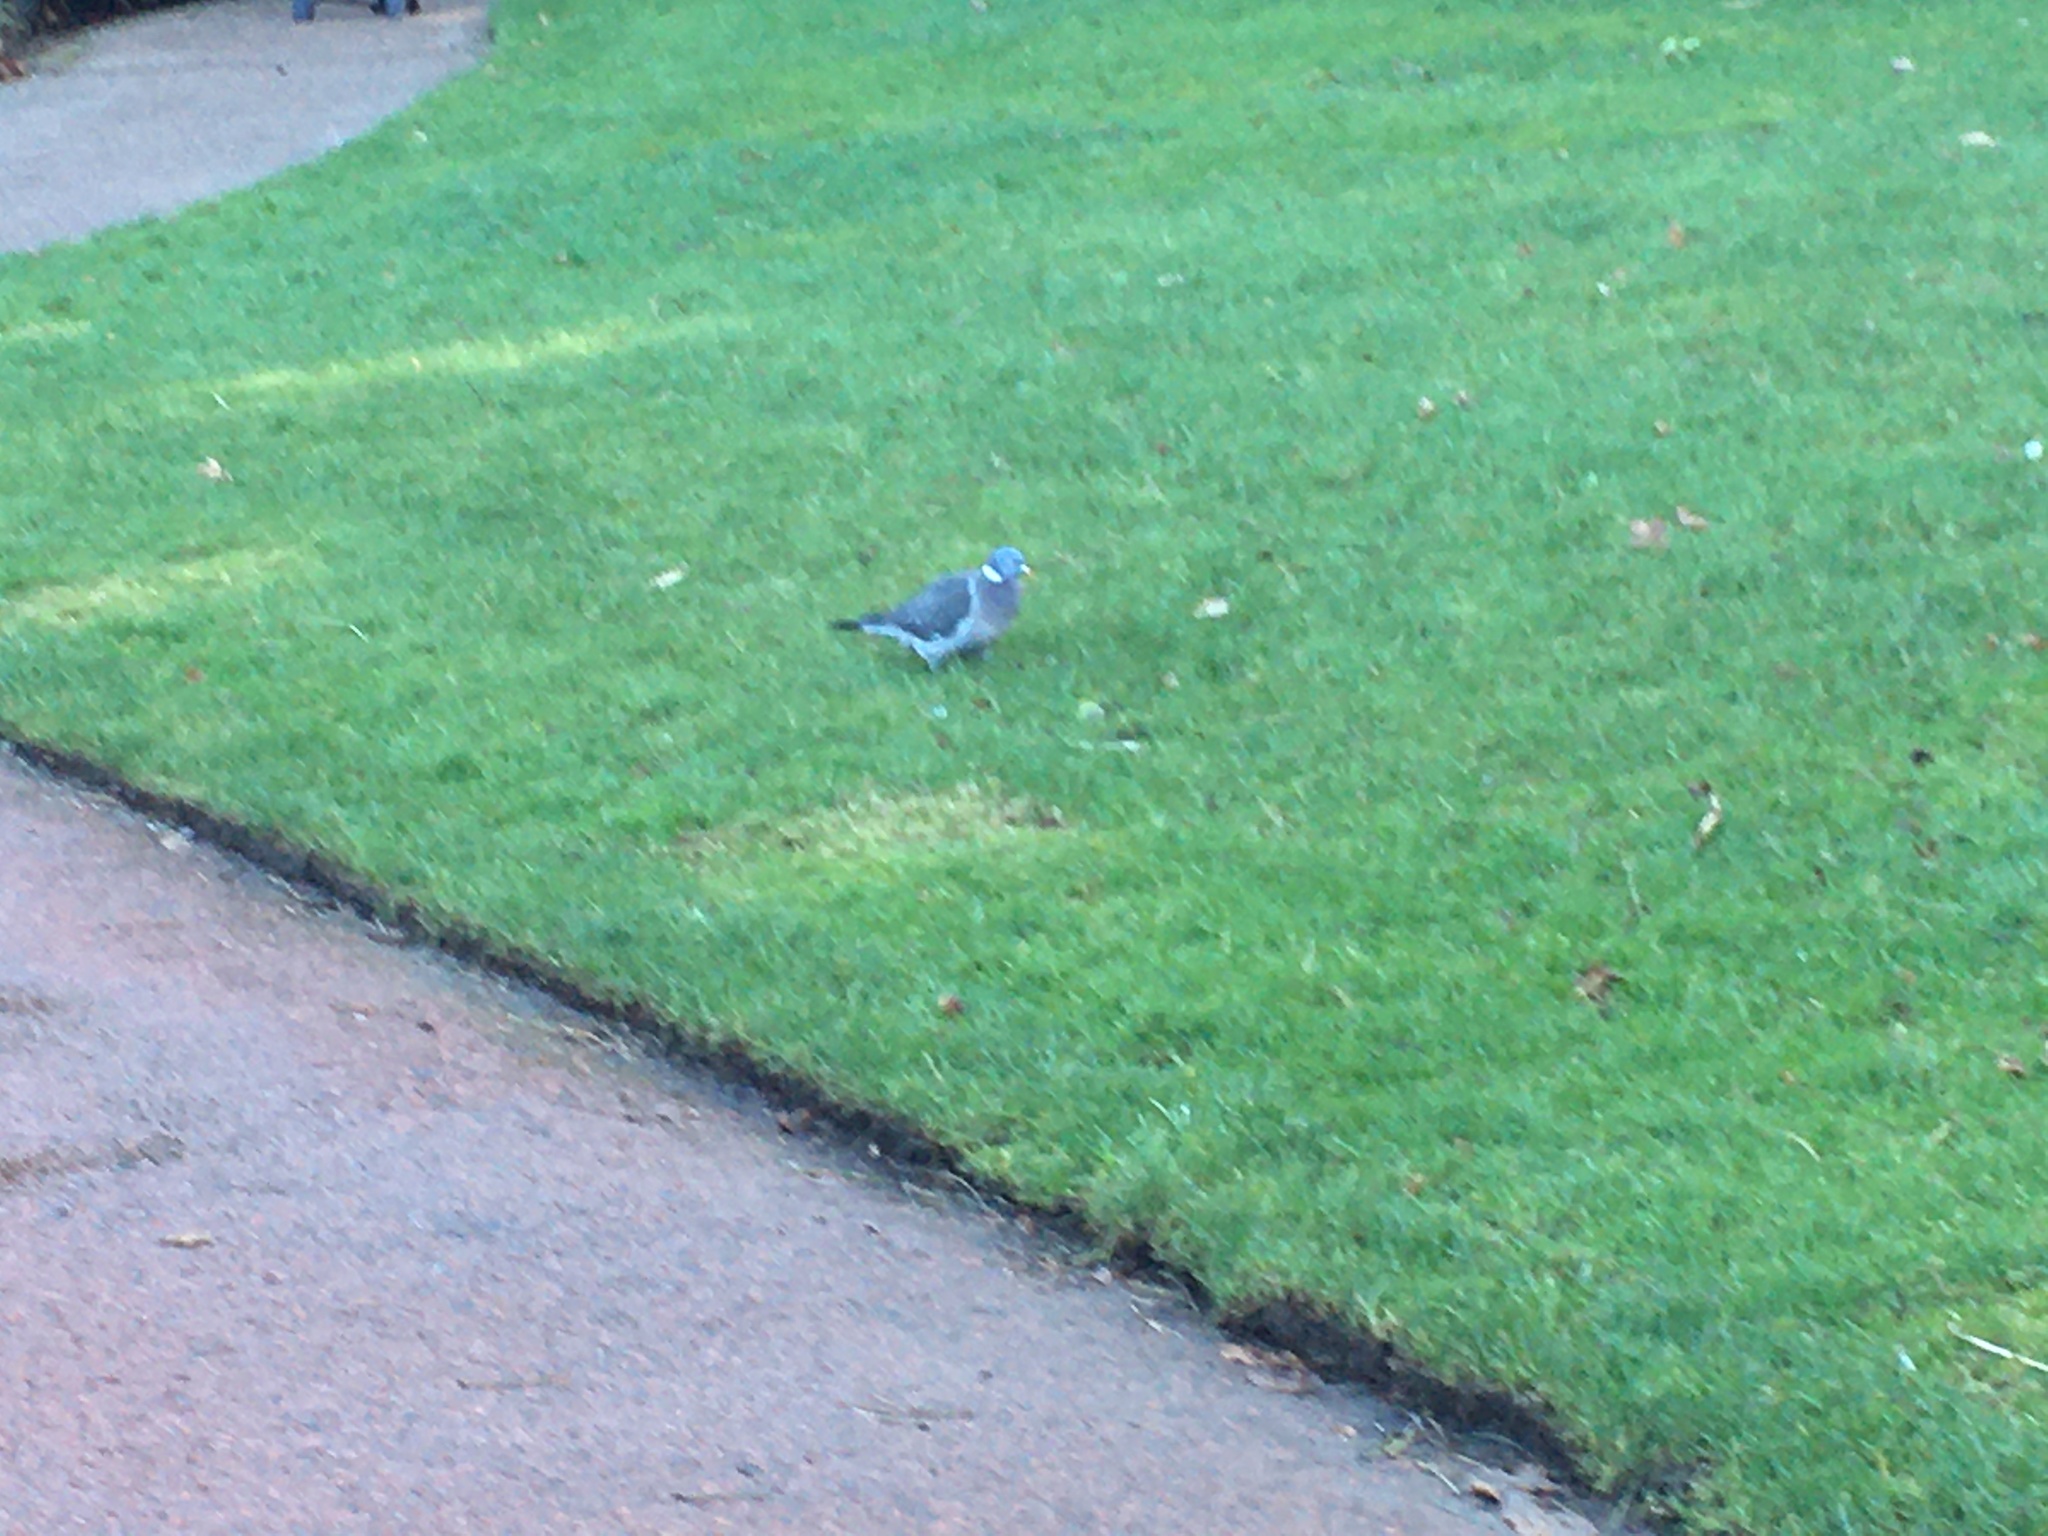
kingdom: Animalia
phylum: Chordata
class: Aves
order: Columbiformes
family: Columbidae
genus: Columba
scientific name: Columba palumbus
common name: Common wood pigeon
